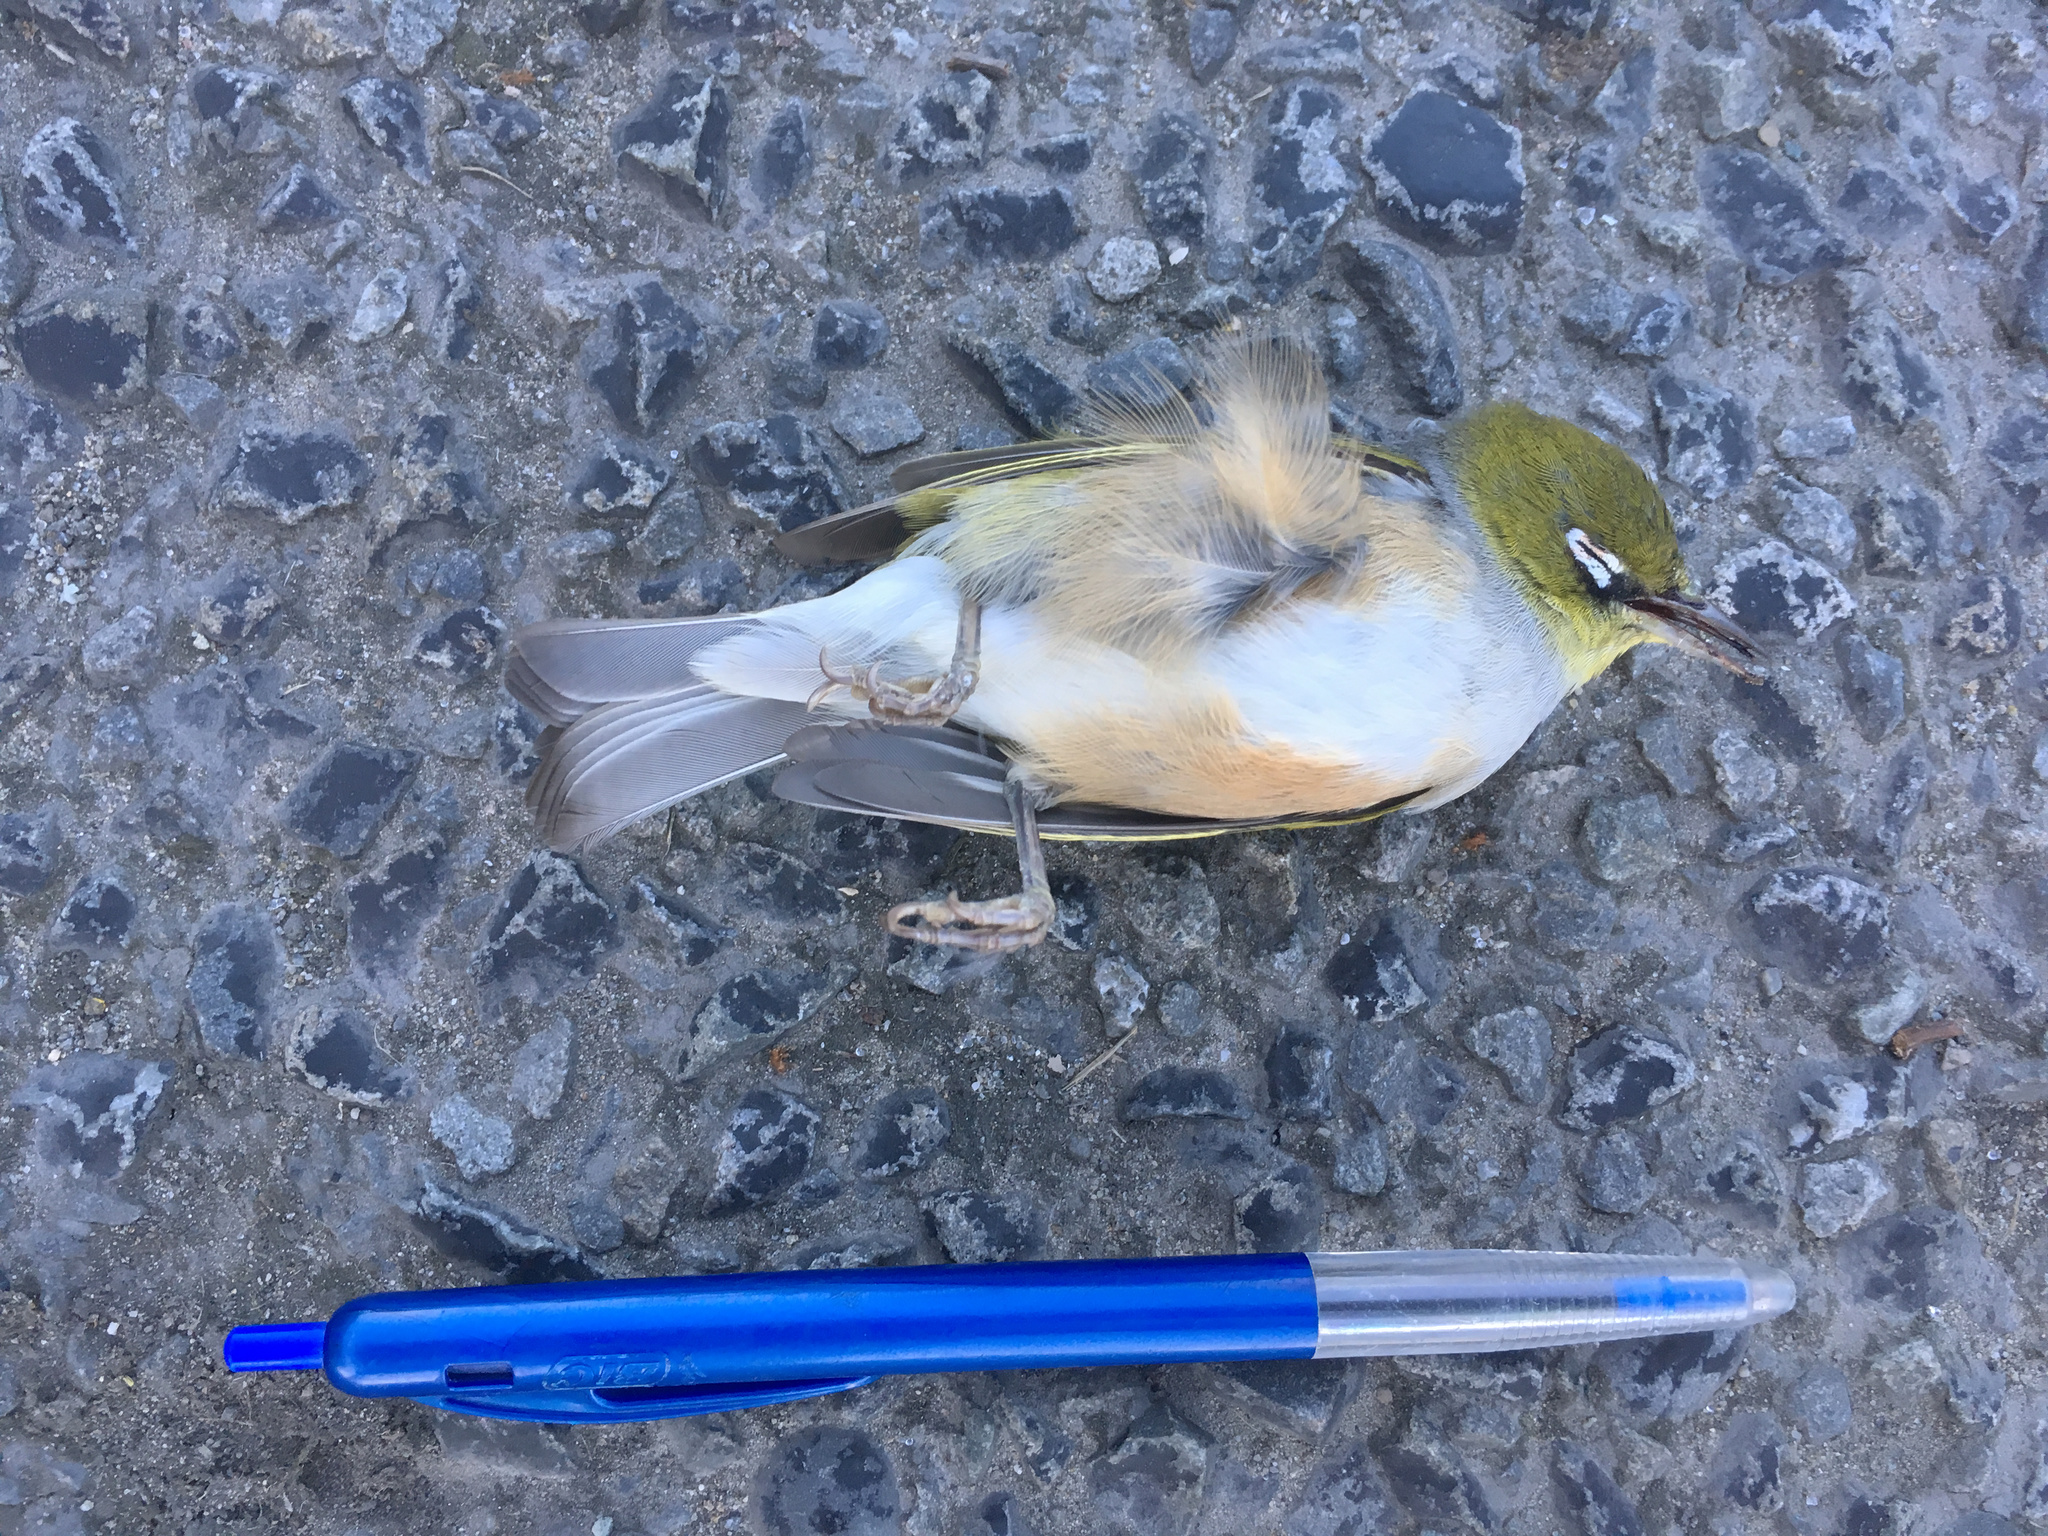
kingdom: Animalia
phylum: Chordata
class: Aves
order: Passeriformes
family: Zosteropidae
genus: Zosterops
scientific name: Zosterops lateralis
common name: Silvereye
